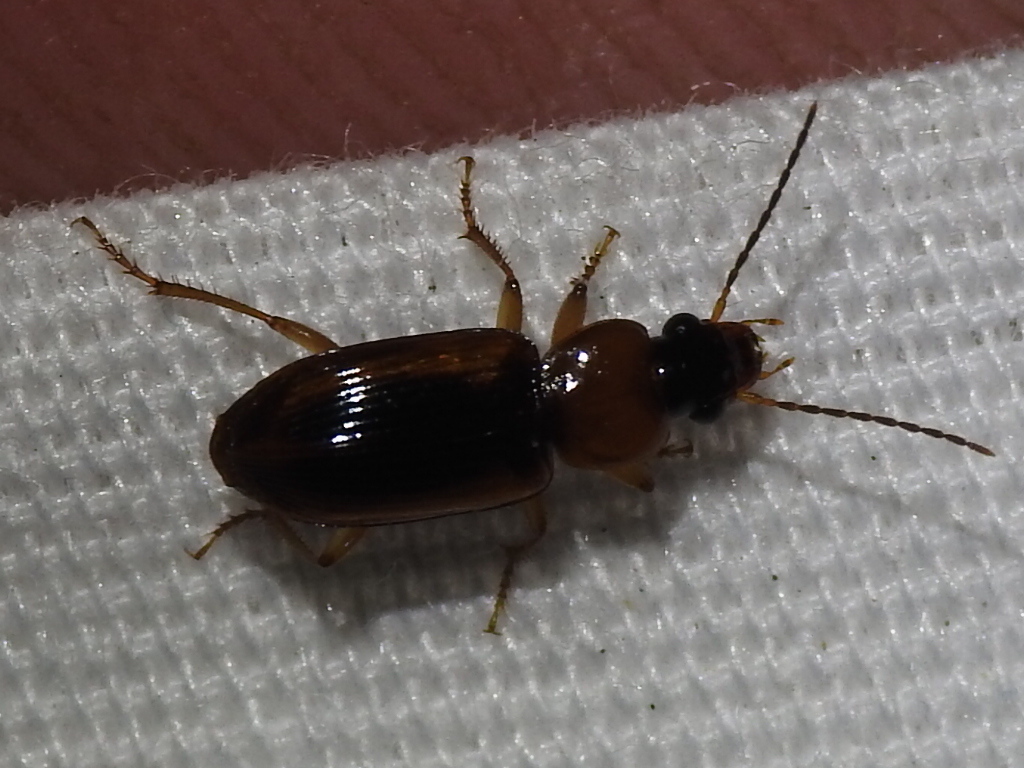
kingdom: Animalia
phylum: Arthropoda
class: Insecta
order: Coleoptera
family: Carabidae
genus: Stenolophus
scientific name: Stenolophus dissimilis
